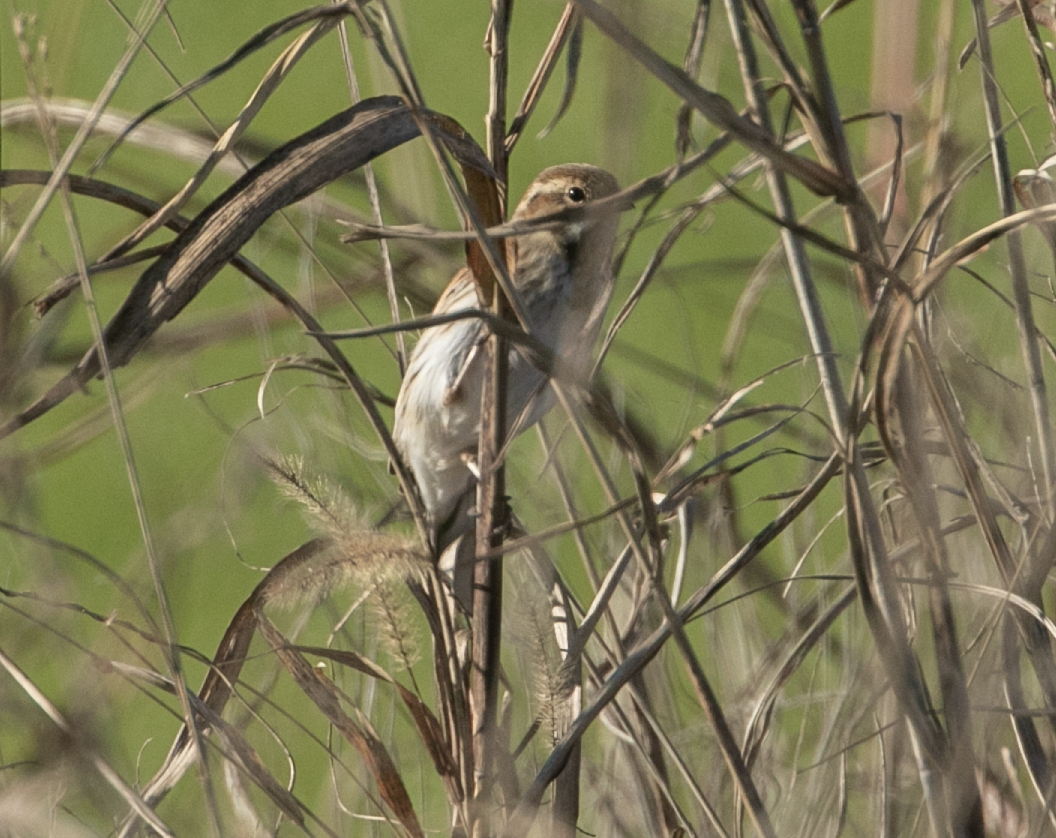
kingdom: Animalia
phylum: Chordata
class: Aves
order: Passeriformes
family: Emberizidae
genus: Emberiza
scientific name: Emberiza schoeniclus
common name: Reed bunting
